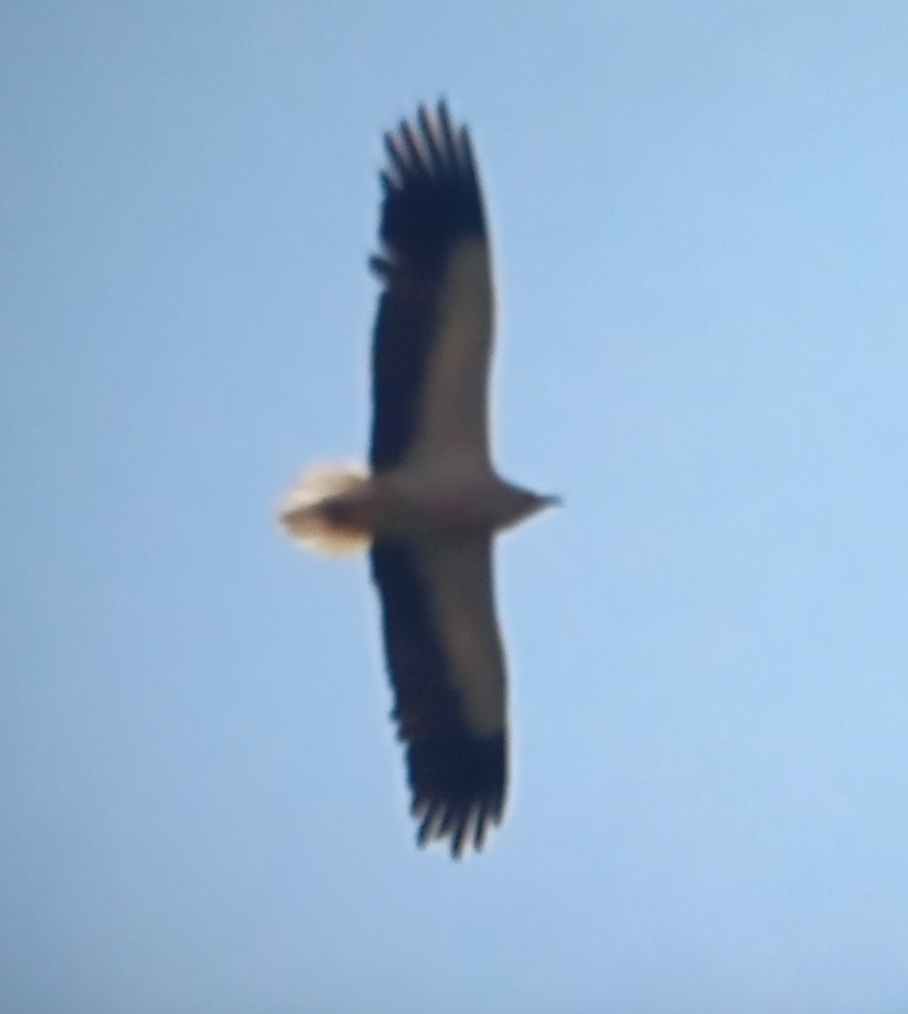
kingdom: Animalia
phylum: Chordata
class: Aves
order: Accipitriformes
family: Accipitridae
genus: Neophron
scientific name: Neophron percnopterus
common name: Egyptian vulture
